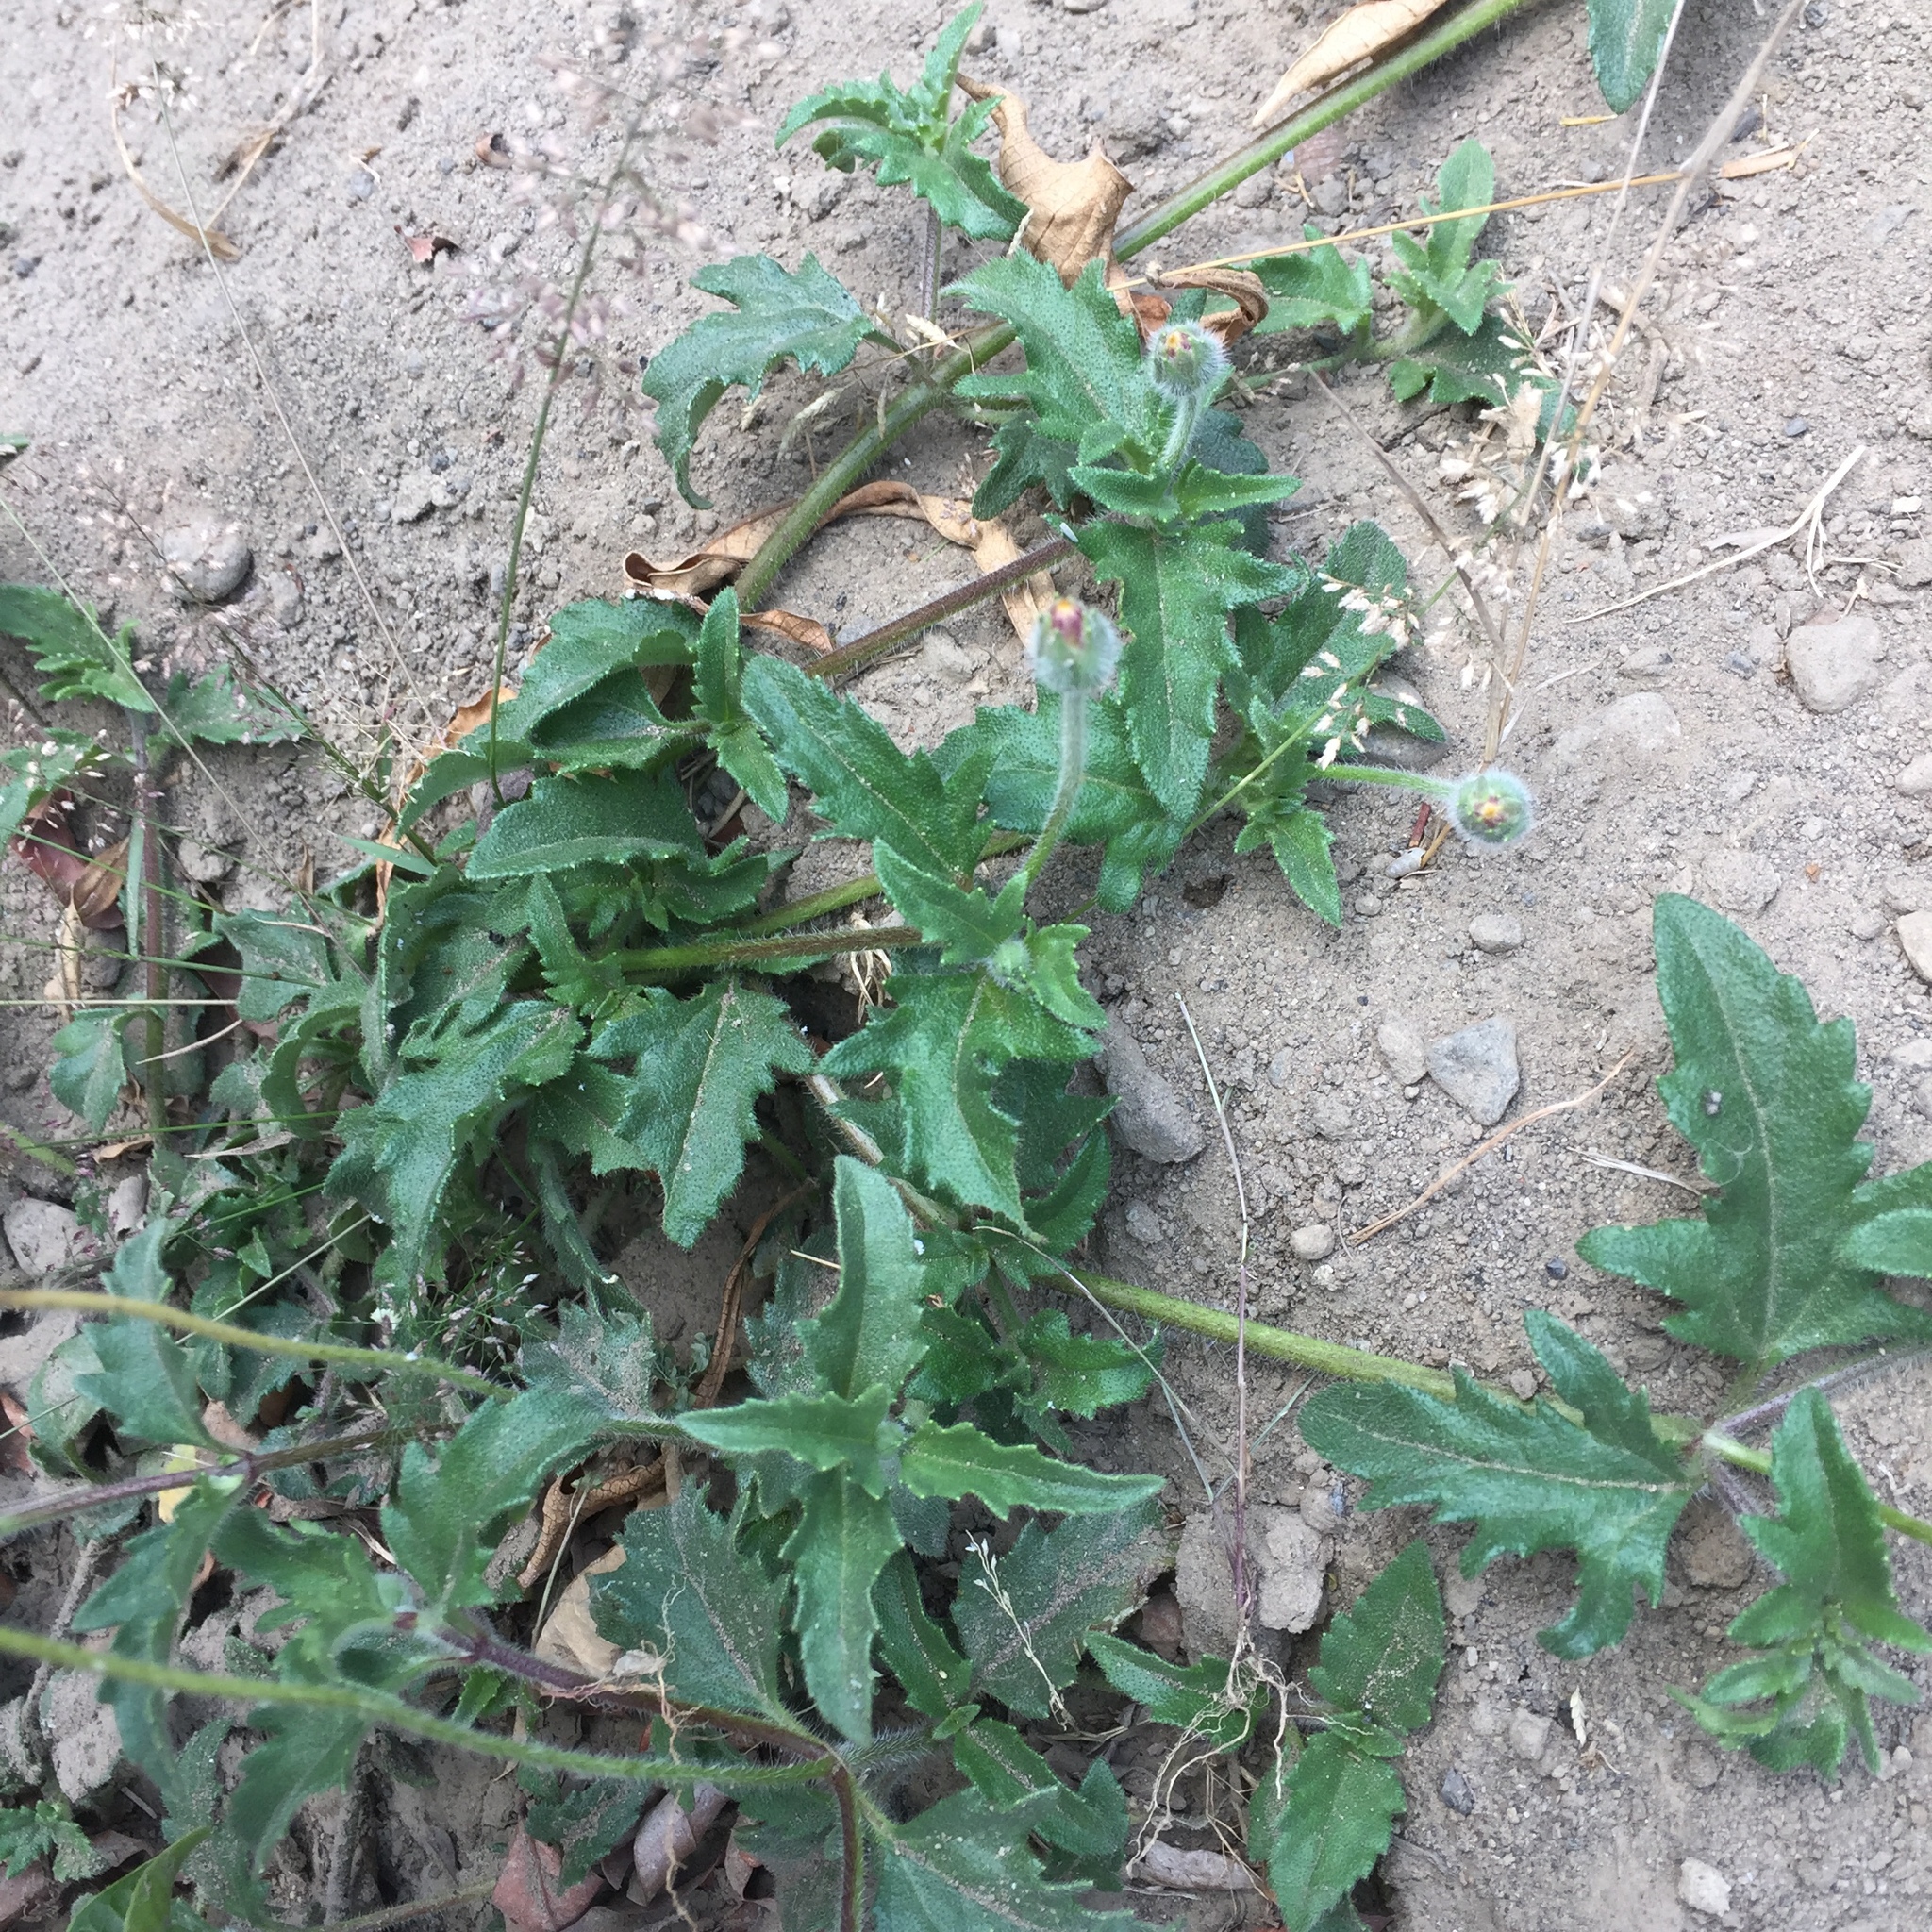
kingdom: Plantae
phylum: Tracheophyta
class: Magnoliopsida
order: Asterales
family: Asteraceae
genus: Tridax
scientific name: Tridax procumbens
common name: Coatbuttons
